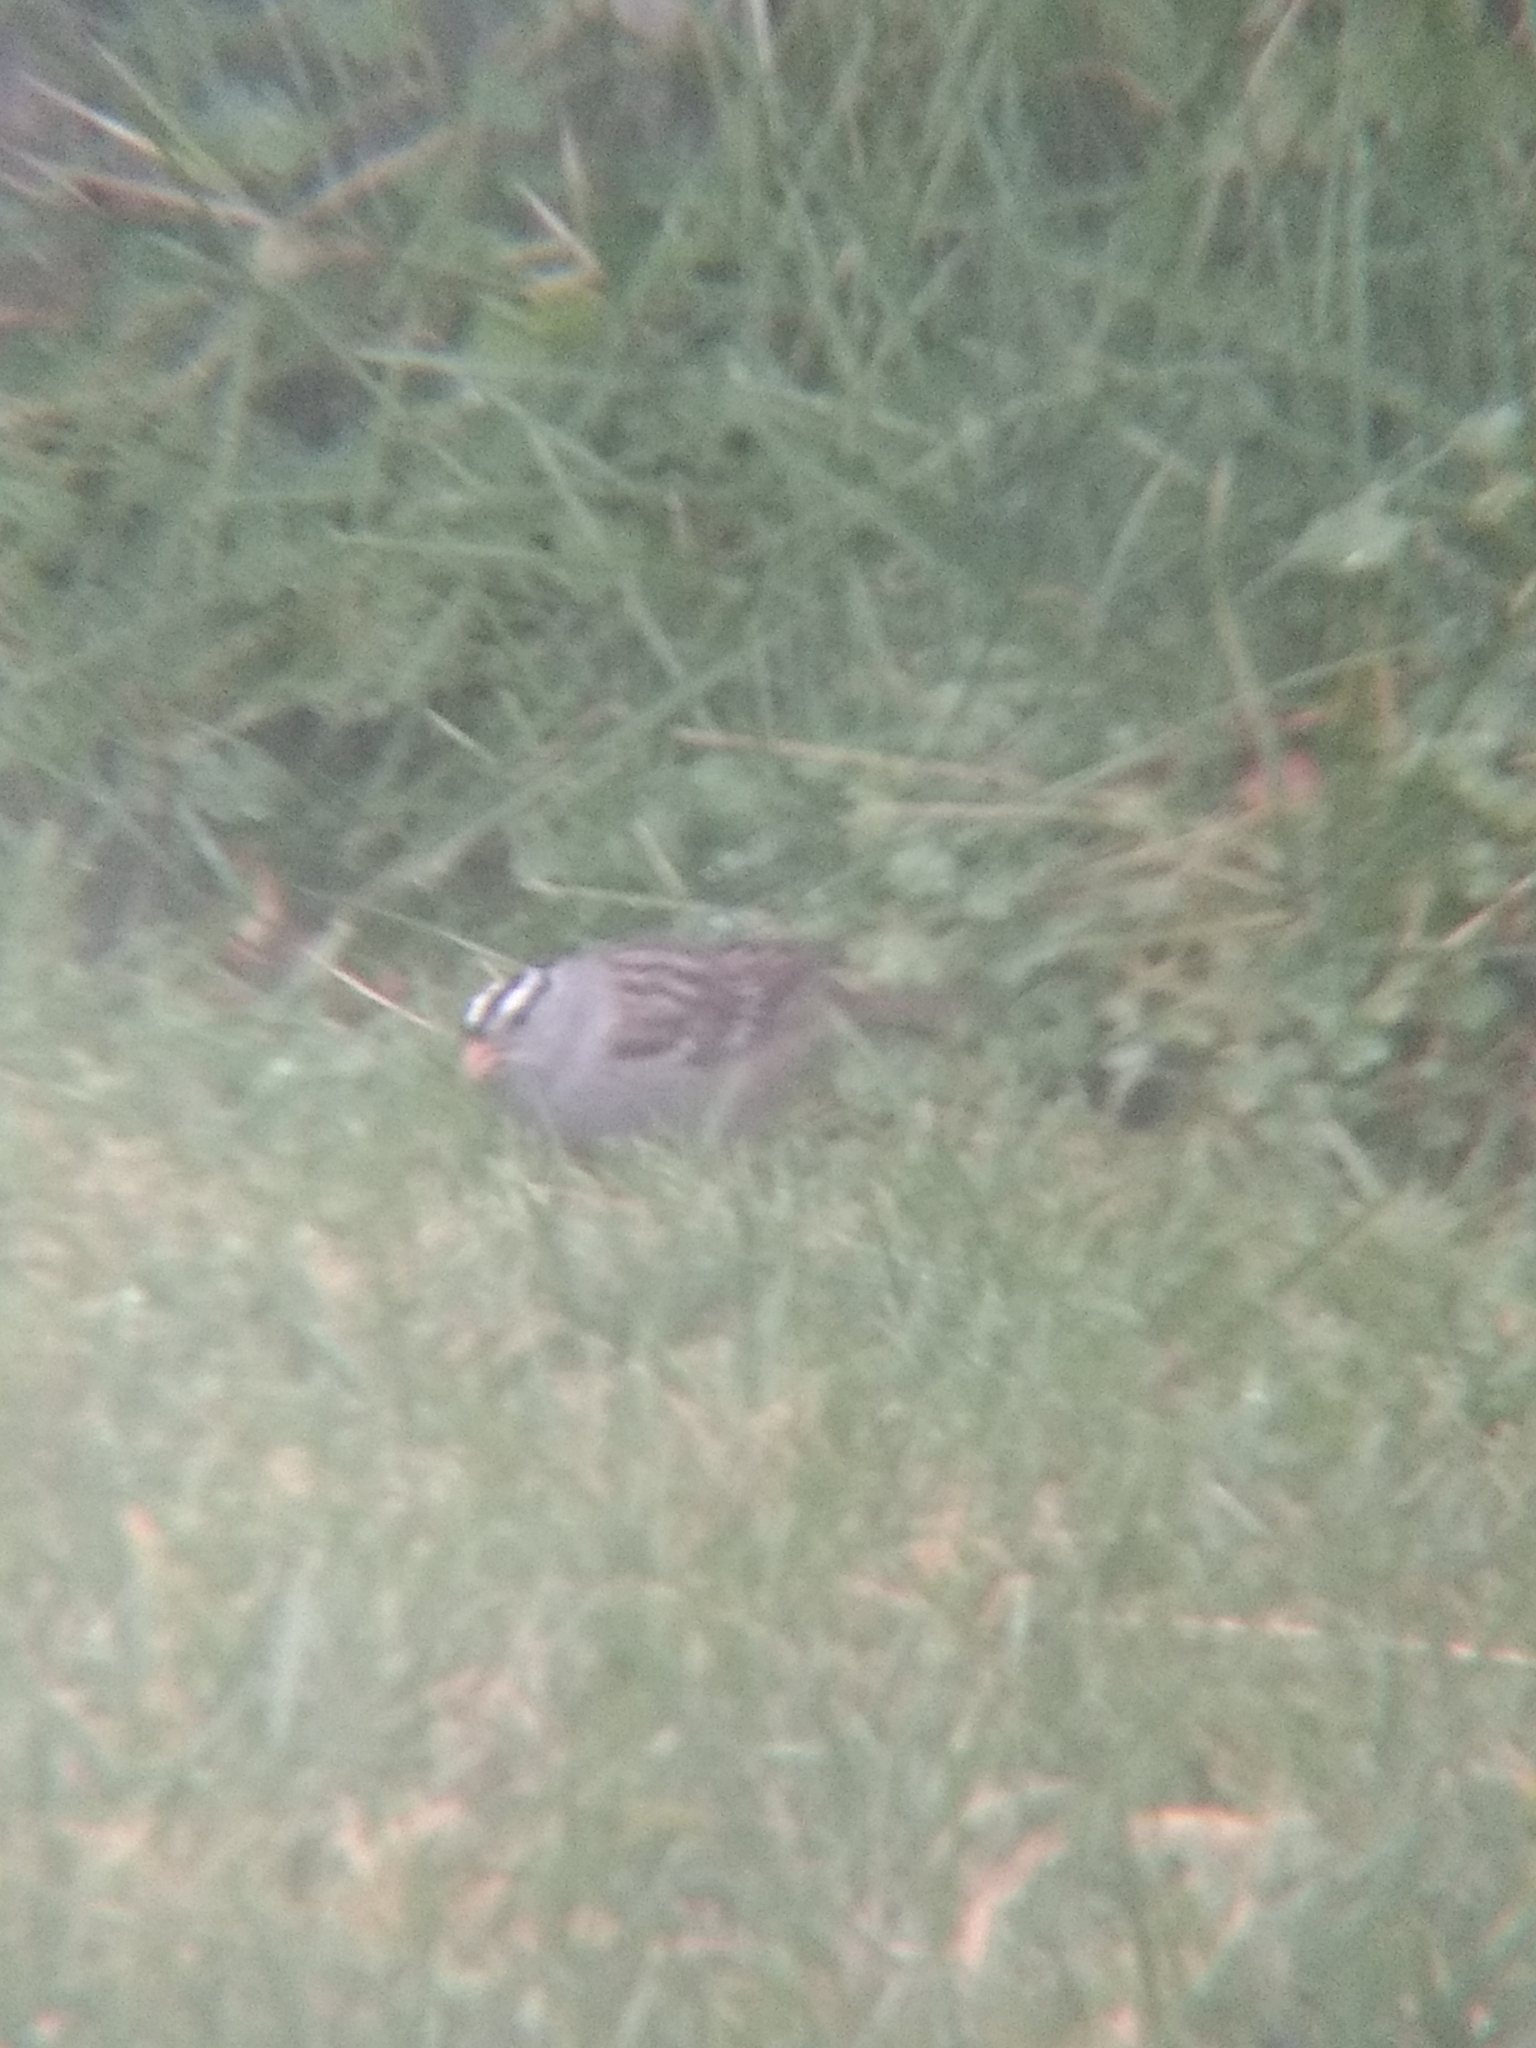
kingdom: Animalia
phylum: Chordata
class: Aves
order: Passeriformes
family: Passerellidae
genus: Zonotrichia
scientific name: Zonotrichia leucophrys
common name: White-crowned sparrow
